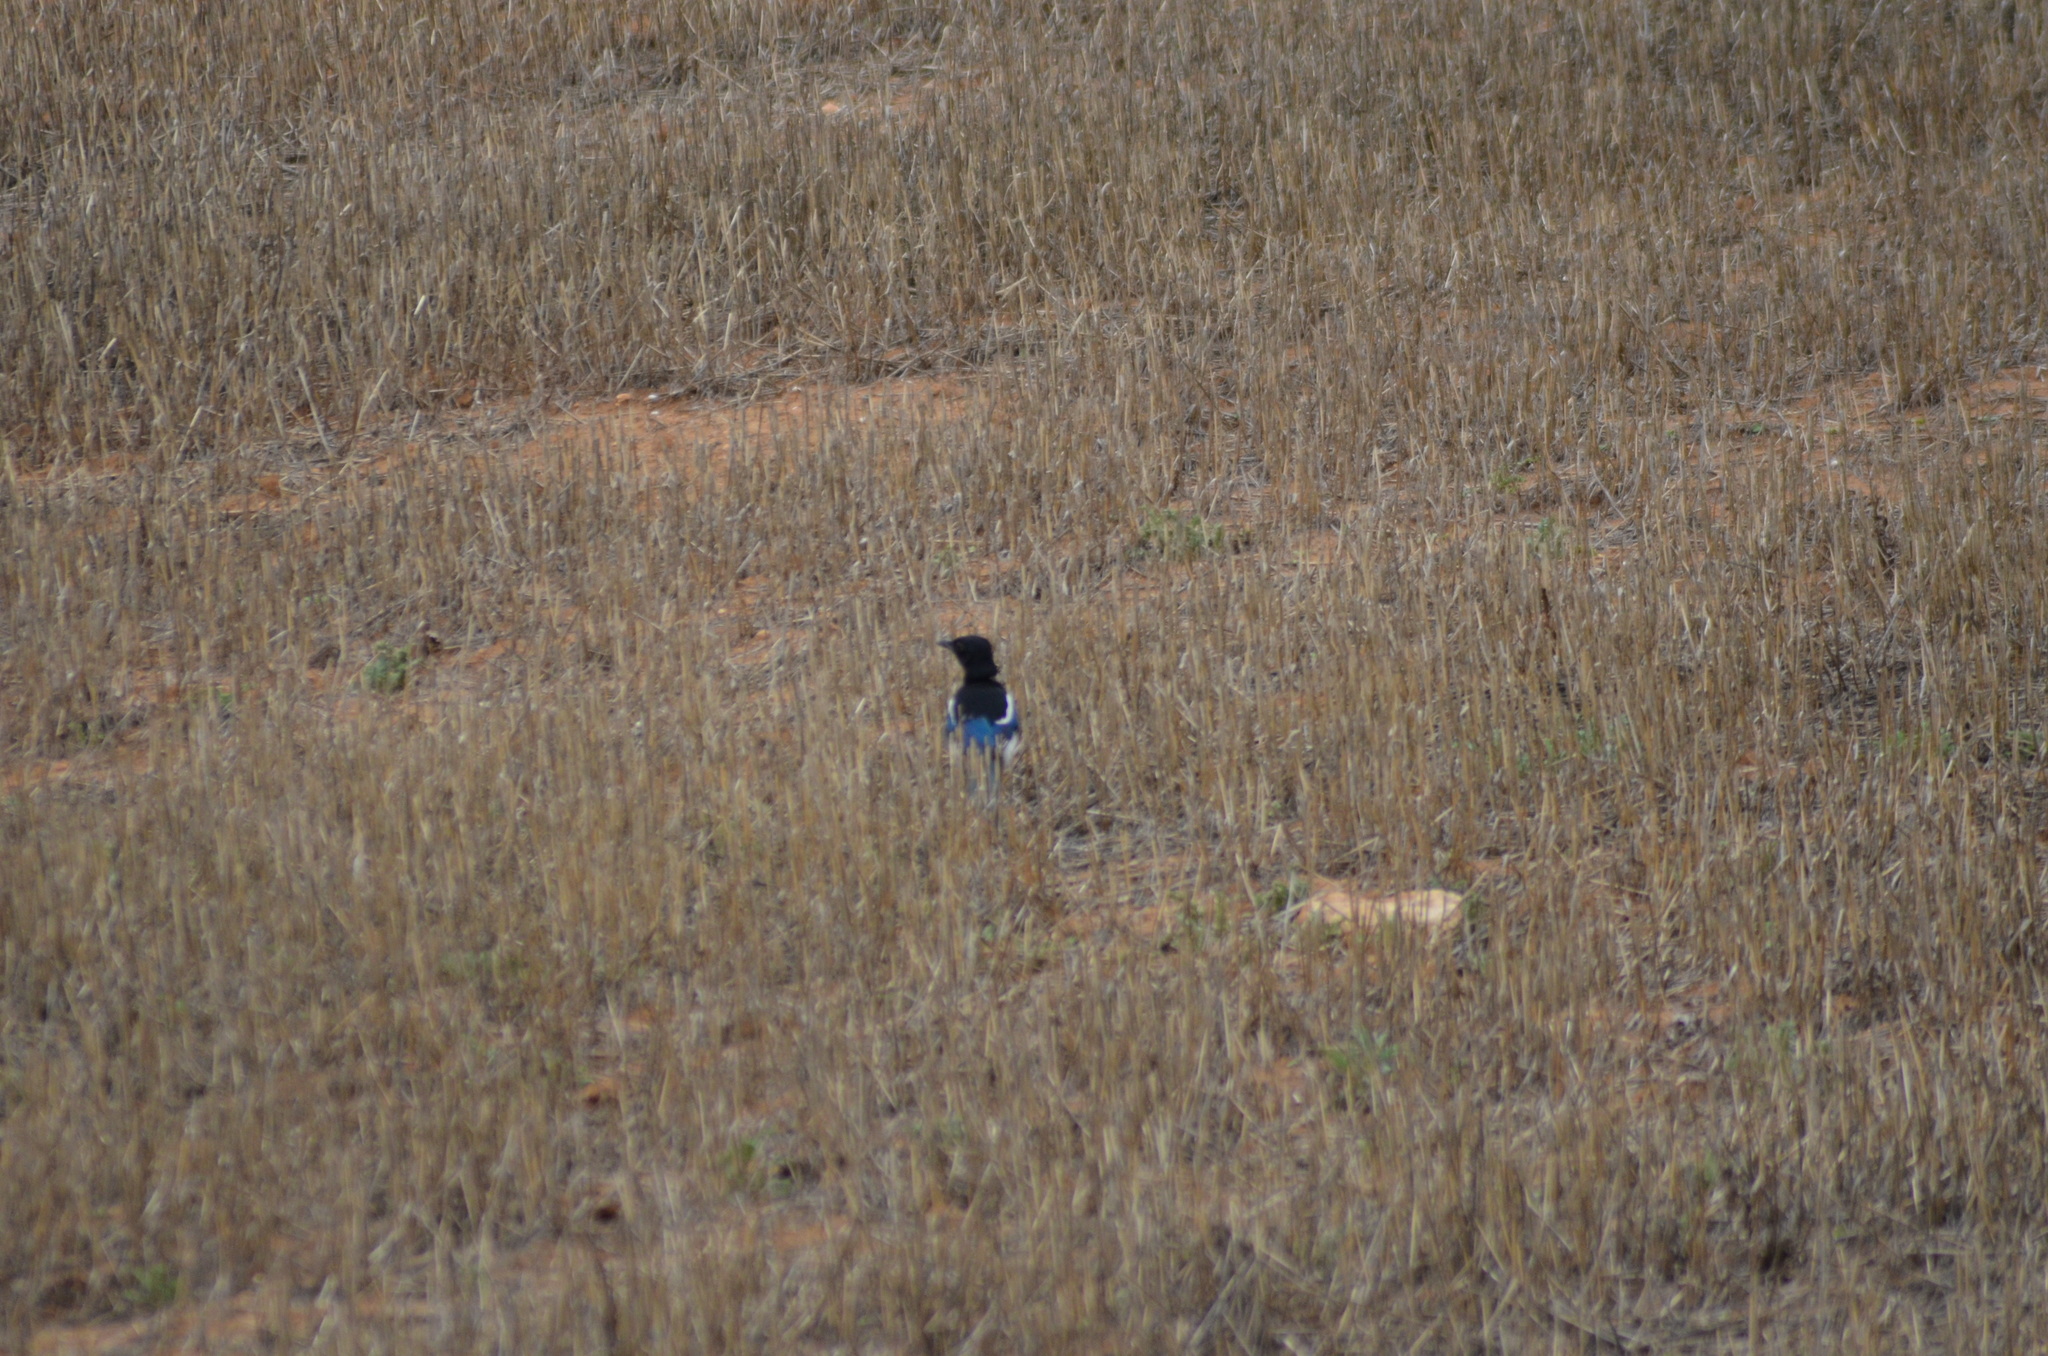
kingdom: Animalia
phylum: Chordata
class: Aves
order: Passeriformes
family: Corvidae
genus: Pica
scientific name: Pica pica
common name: Eurasian magpie
